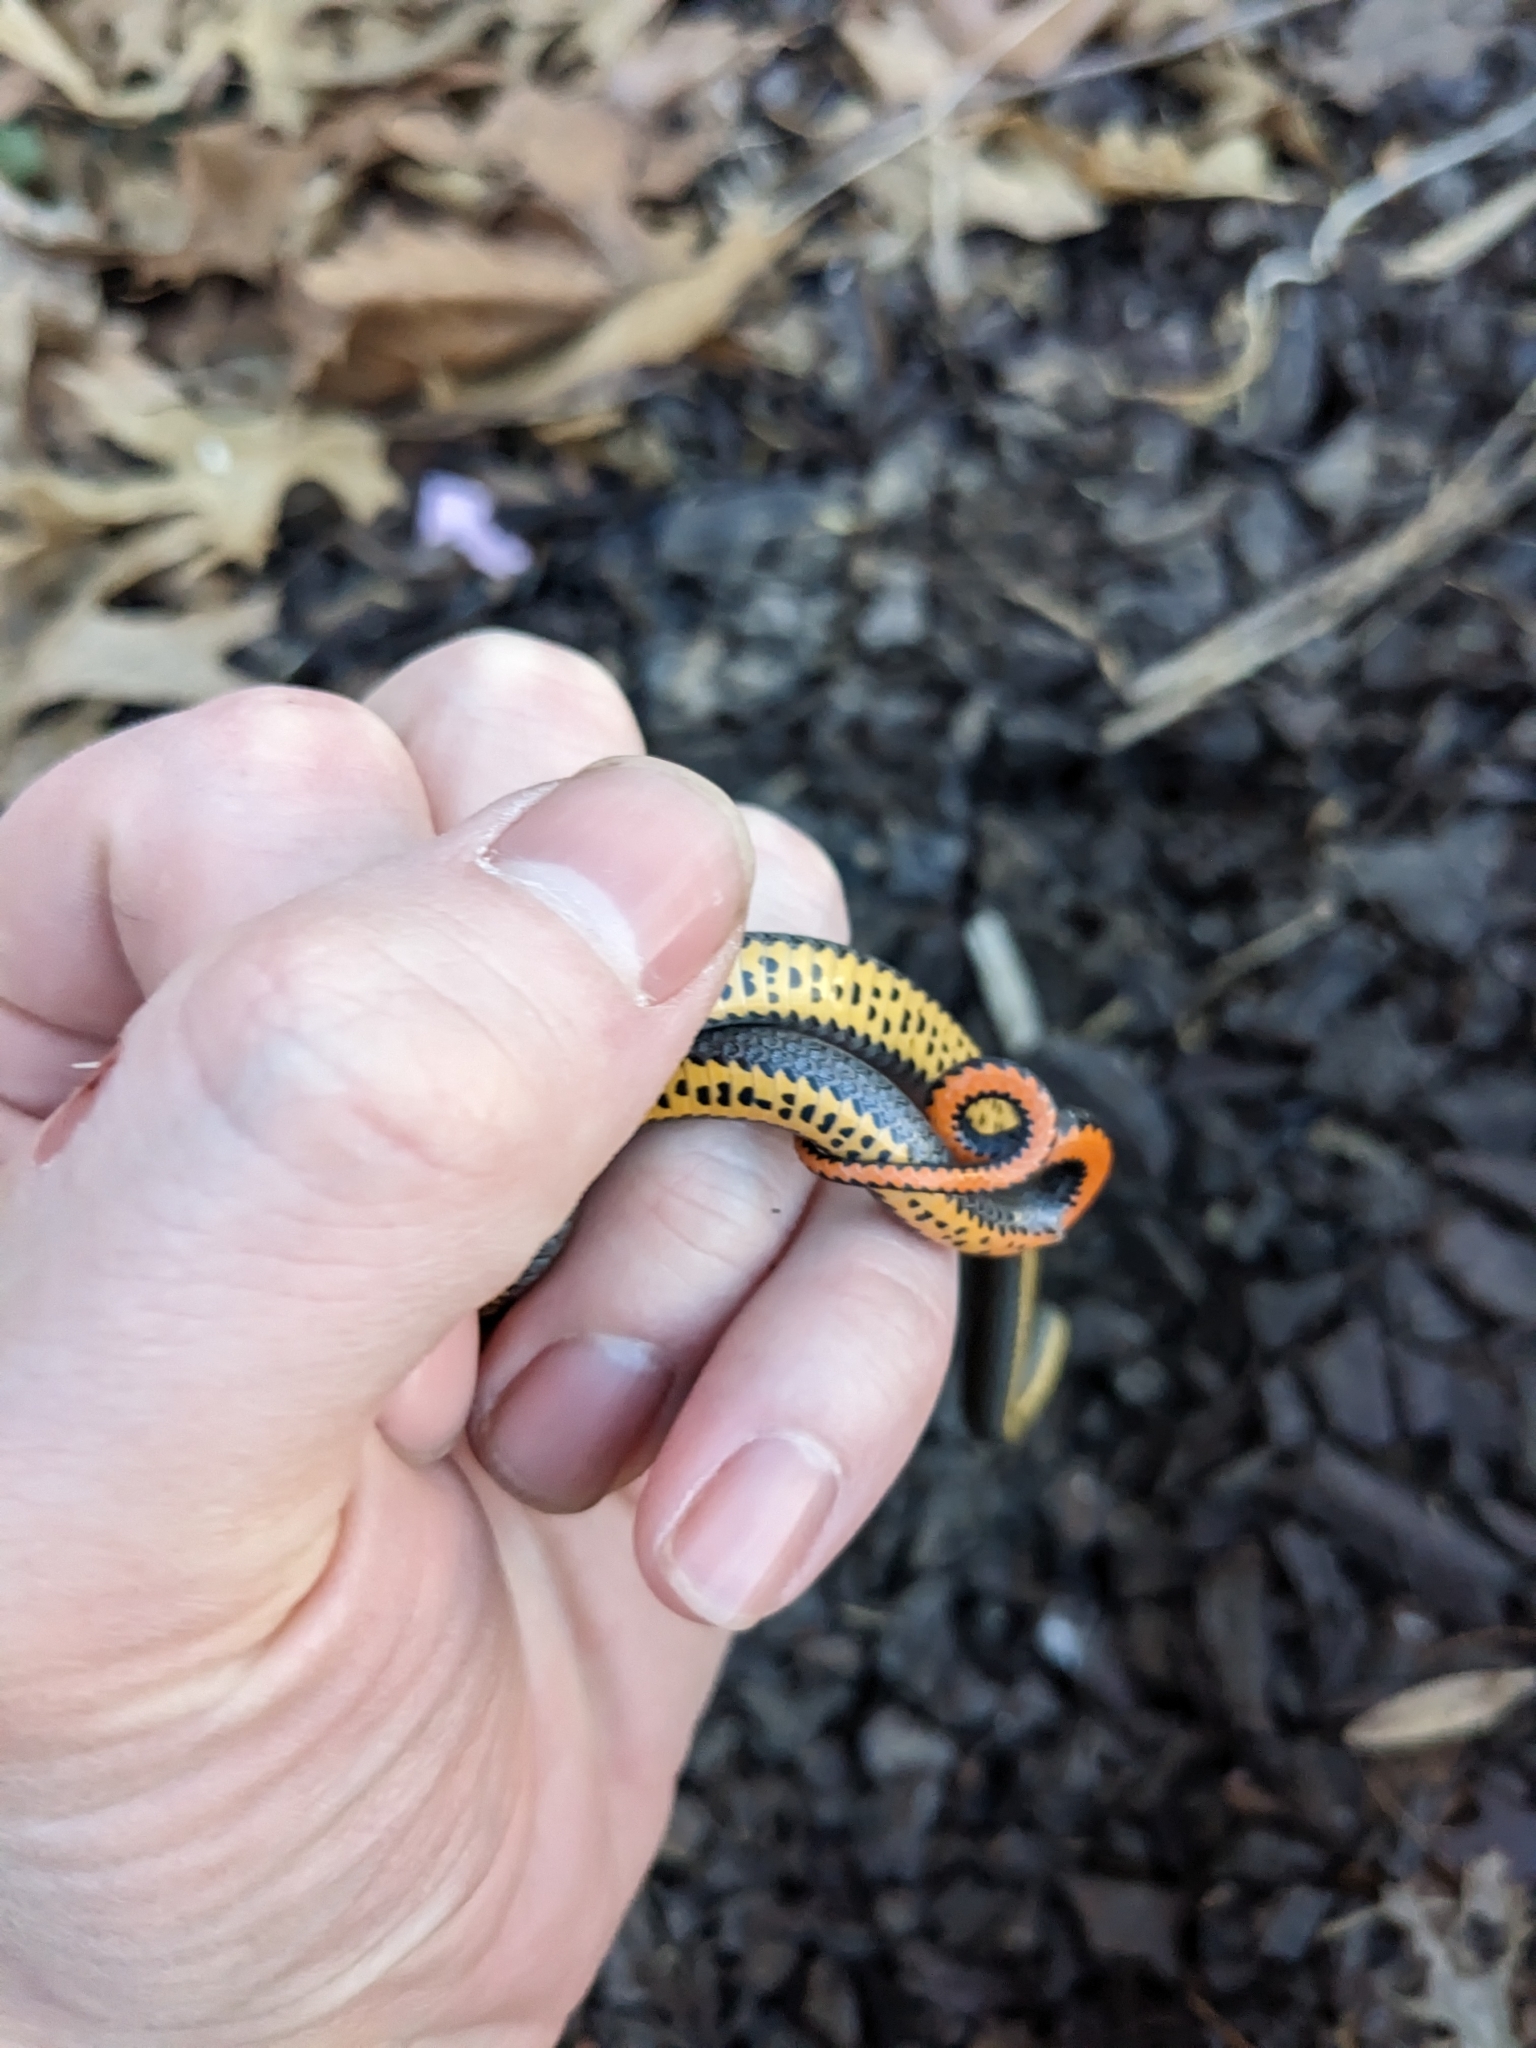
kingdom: Animalia
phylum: Chordata
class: Squamata
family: Colubridae
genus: Diadophis
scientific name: Diadophis punctatus
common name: Ringneck snake
